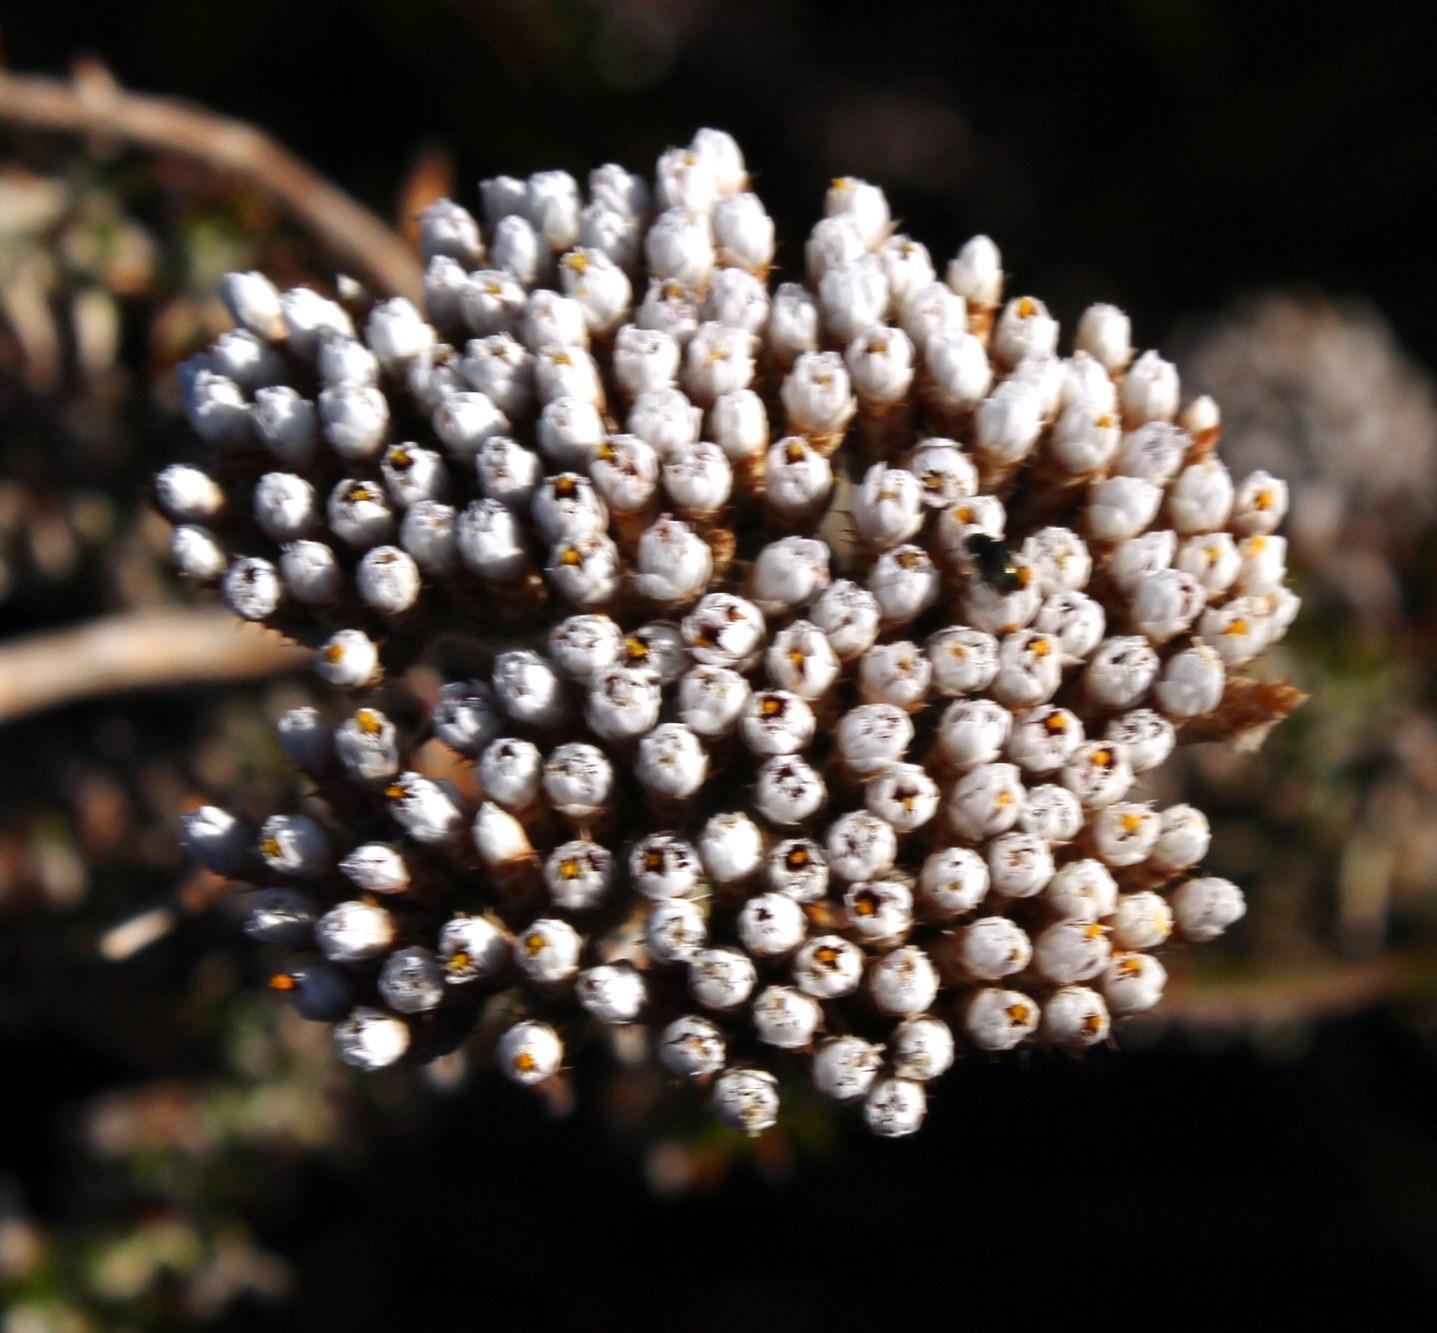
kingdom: Plantae
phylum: Tracheophyta
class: Magnoliopsida
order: Asterales
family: Asteraceae
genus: Metalasia
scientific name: Metalasia densa
